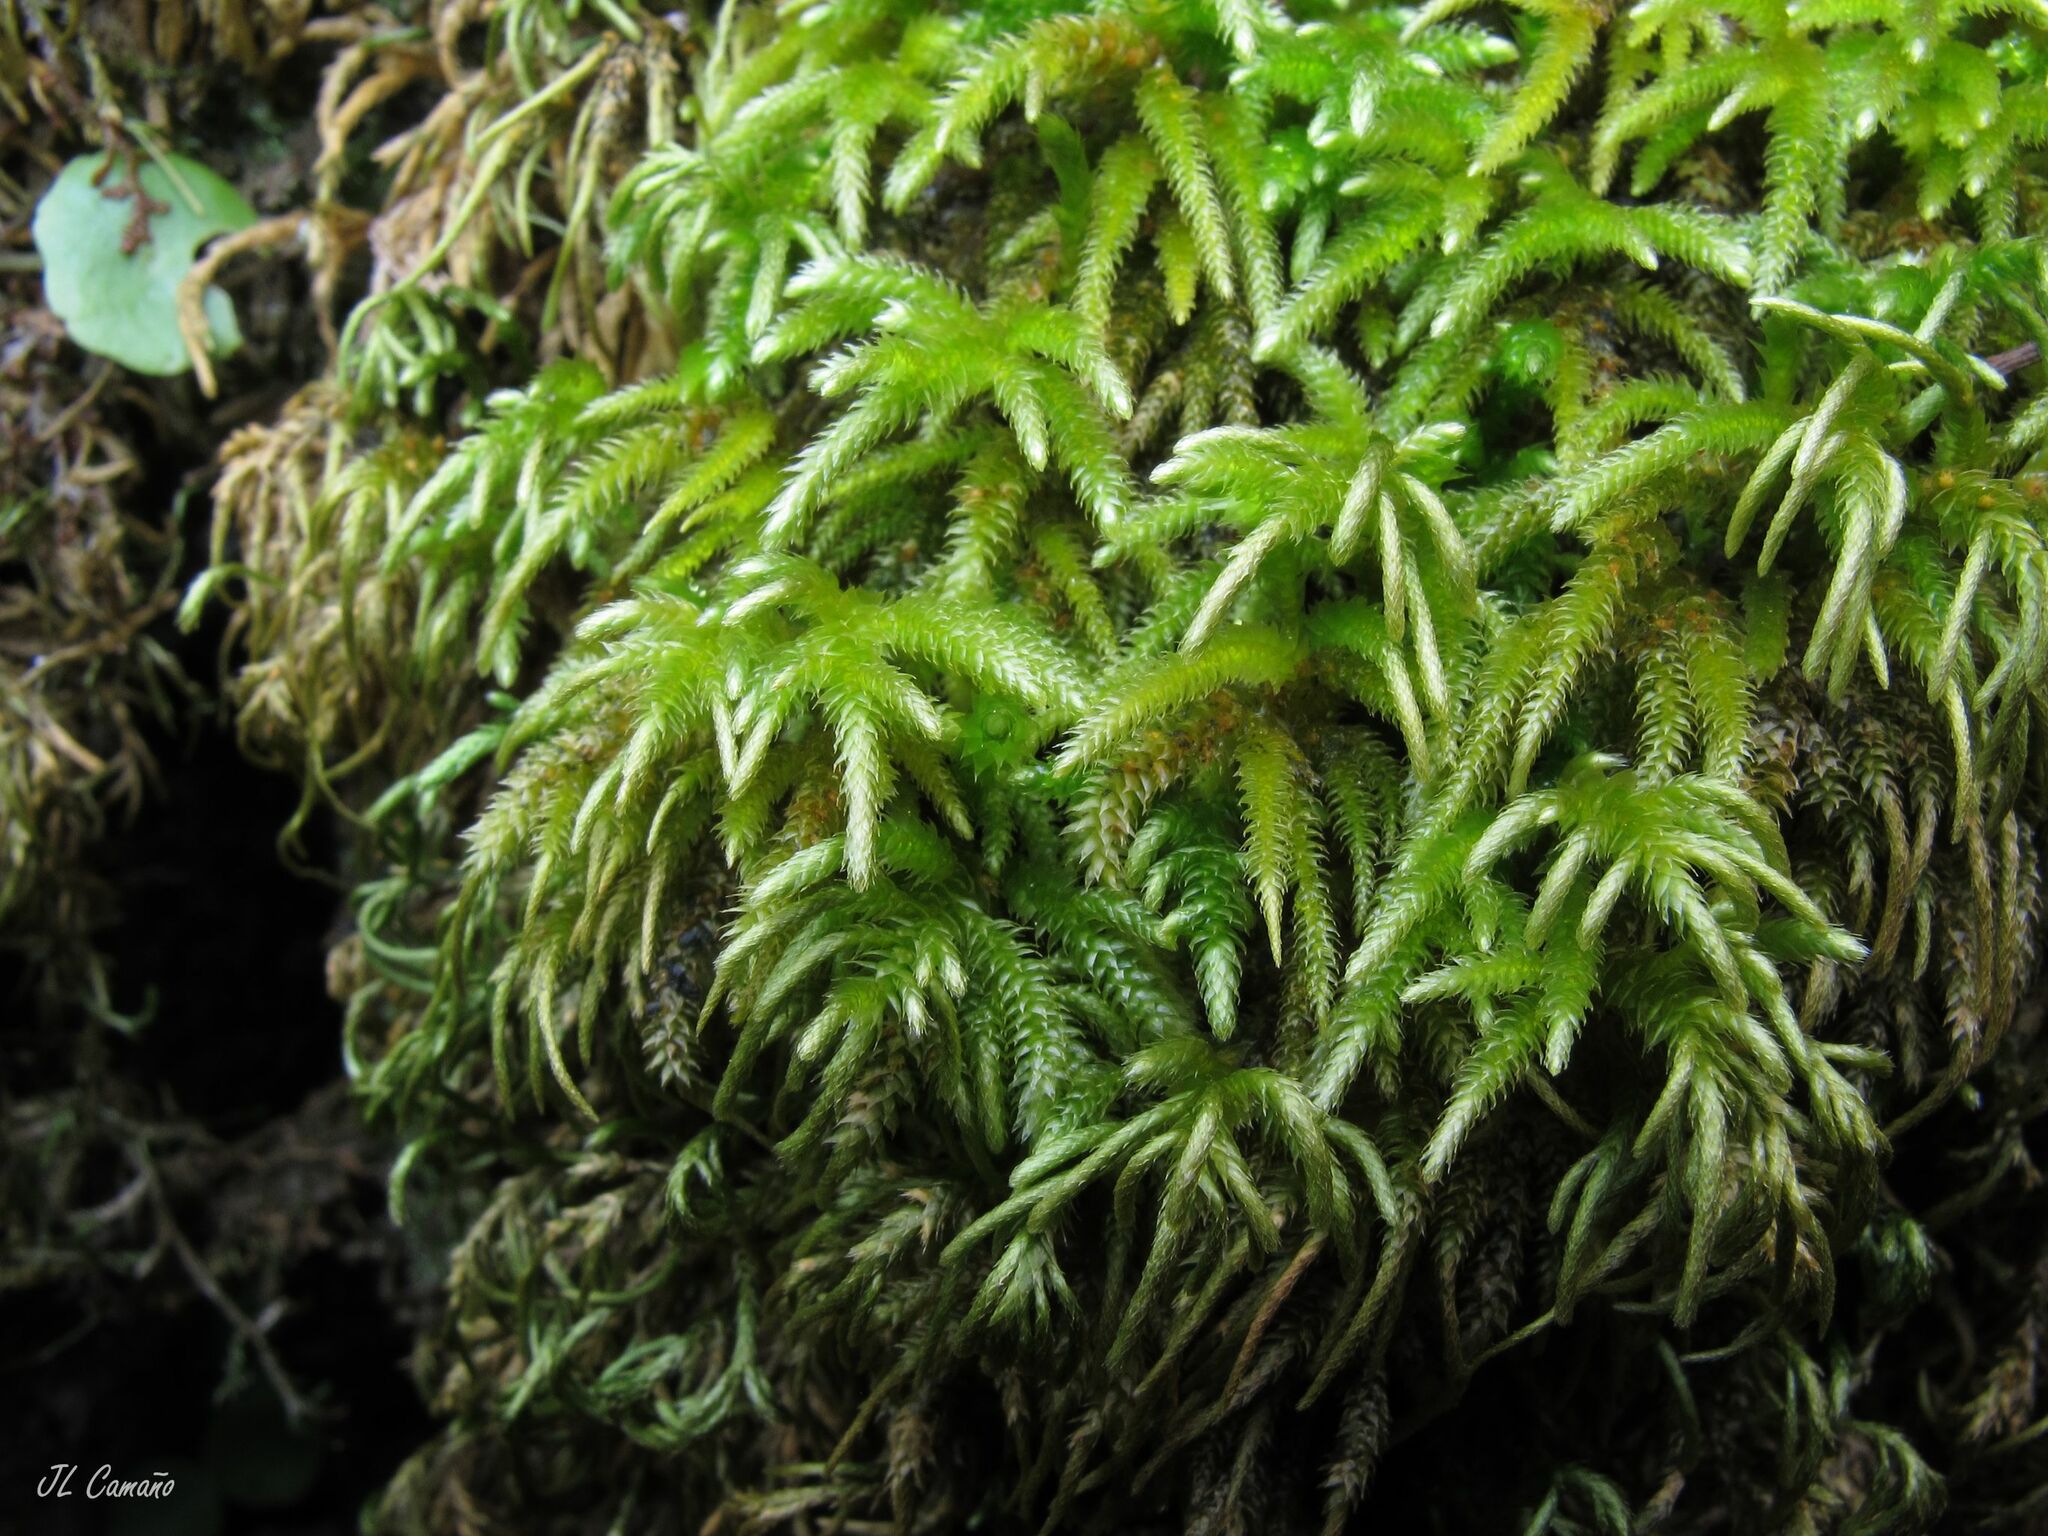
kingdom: Plantae
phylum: Bryophyta
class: Bryopsida
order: Hypnales
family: Lembophyllaceae
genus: Nogopterium
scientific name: Nogopterium gracile
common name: Bird's-foot wing-moss
